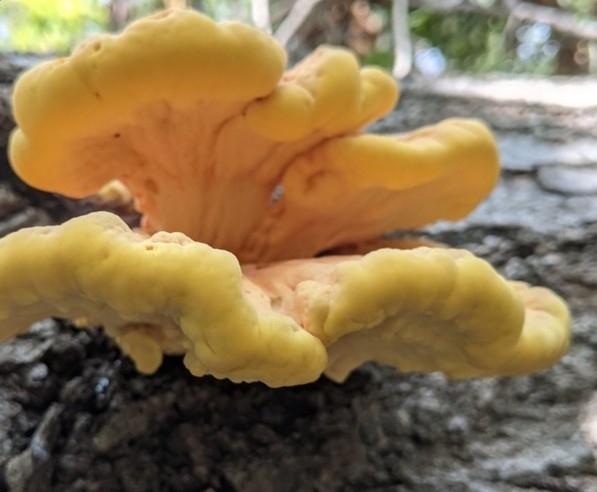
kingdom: Fungi
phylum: Basidiomycota
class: Agaricomycetes
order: Polyporales
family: Laetiporaceae
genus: Laetiporus
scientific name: Laetiporus sulphureus
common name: Chicken of the woods
